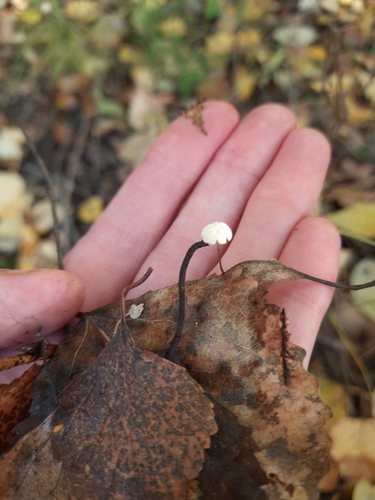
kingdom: Fungi
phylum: Basidiomycota
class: Agaricomycetes
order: Agaricales
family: Marasmiaceae
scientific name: Marasmiaceae
